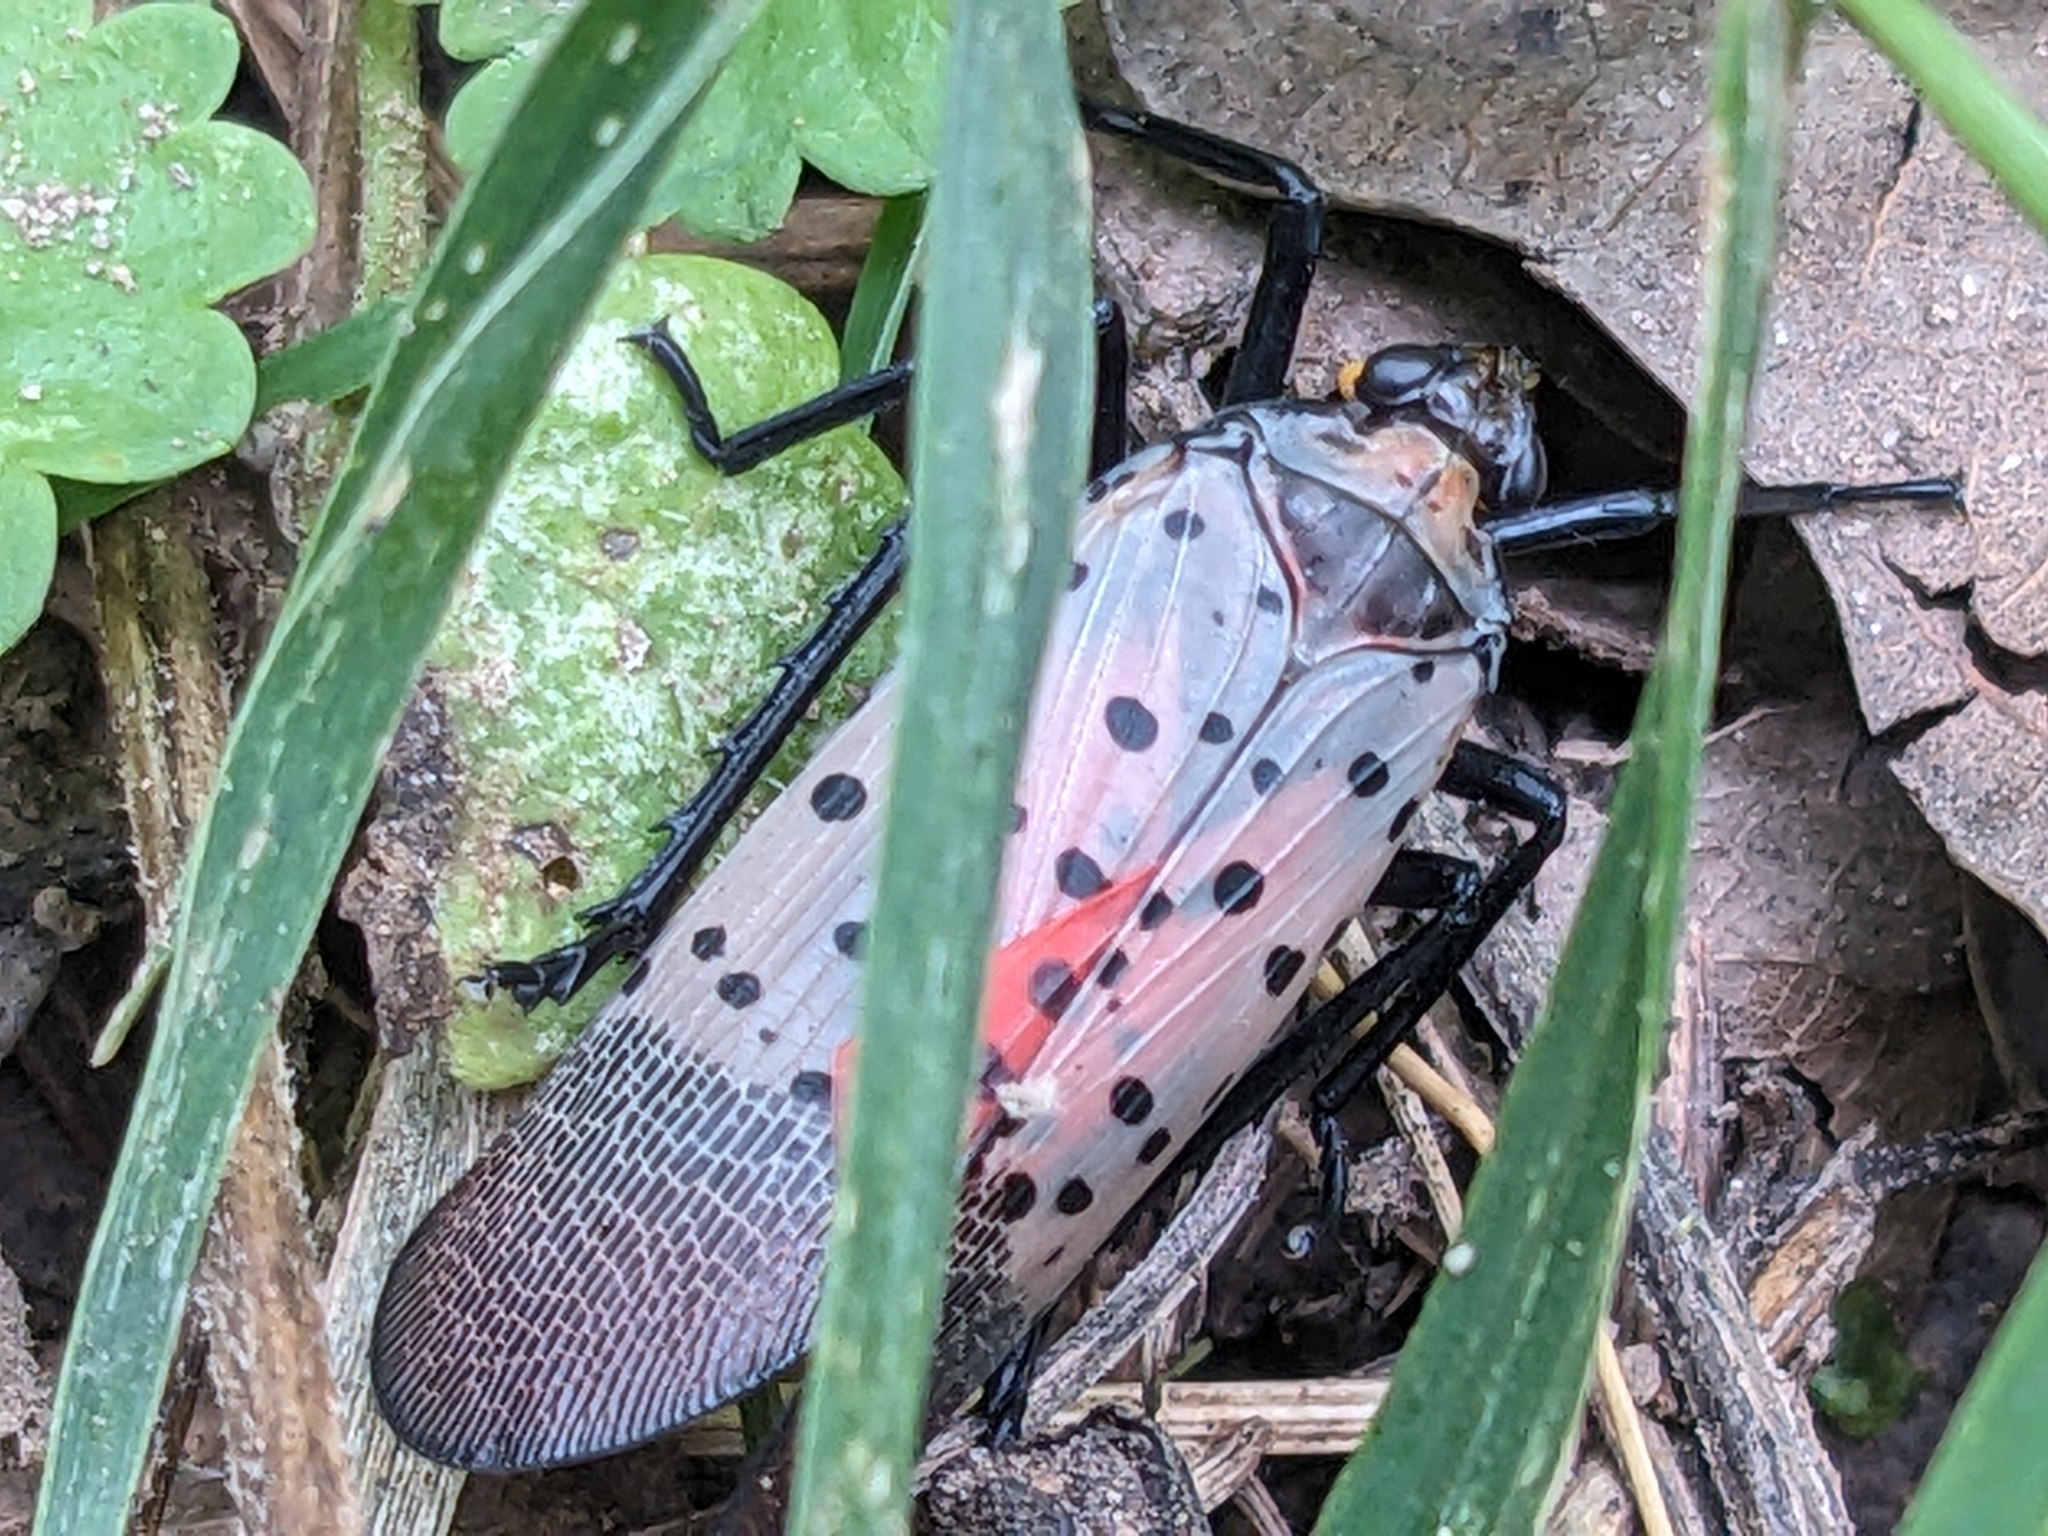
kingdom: Animalia
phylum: Arthropoda
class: Insecta
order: Hemiptera
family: Fulgoridae
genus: Lycorma
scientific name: Lycorma delicatula
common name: Spotted lanternfly
